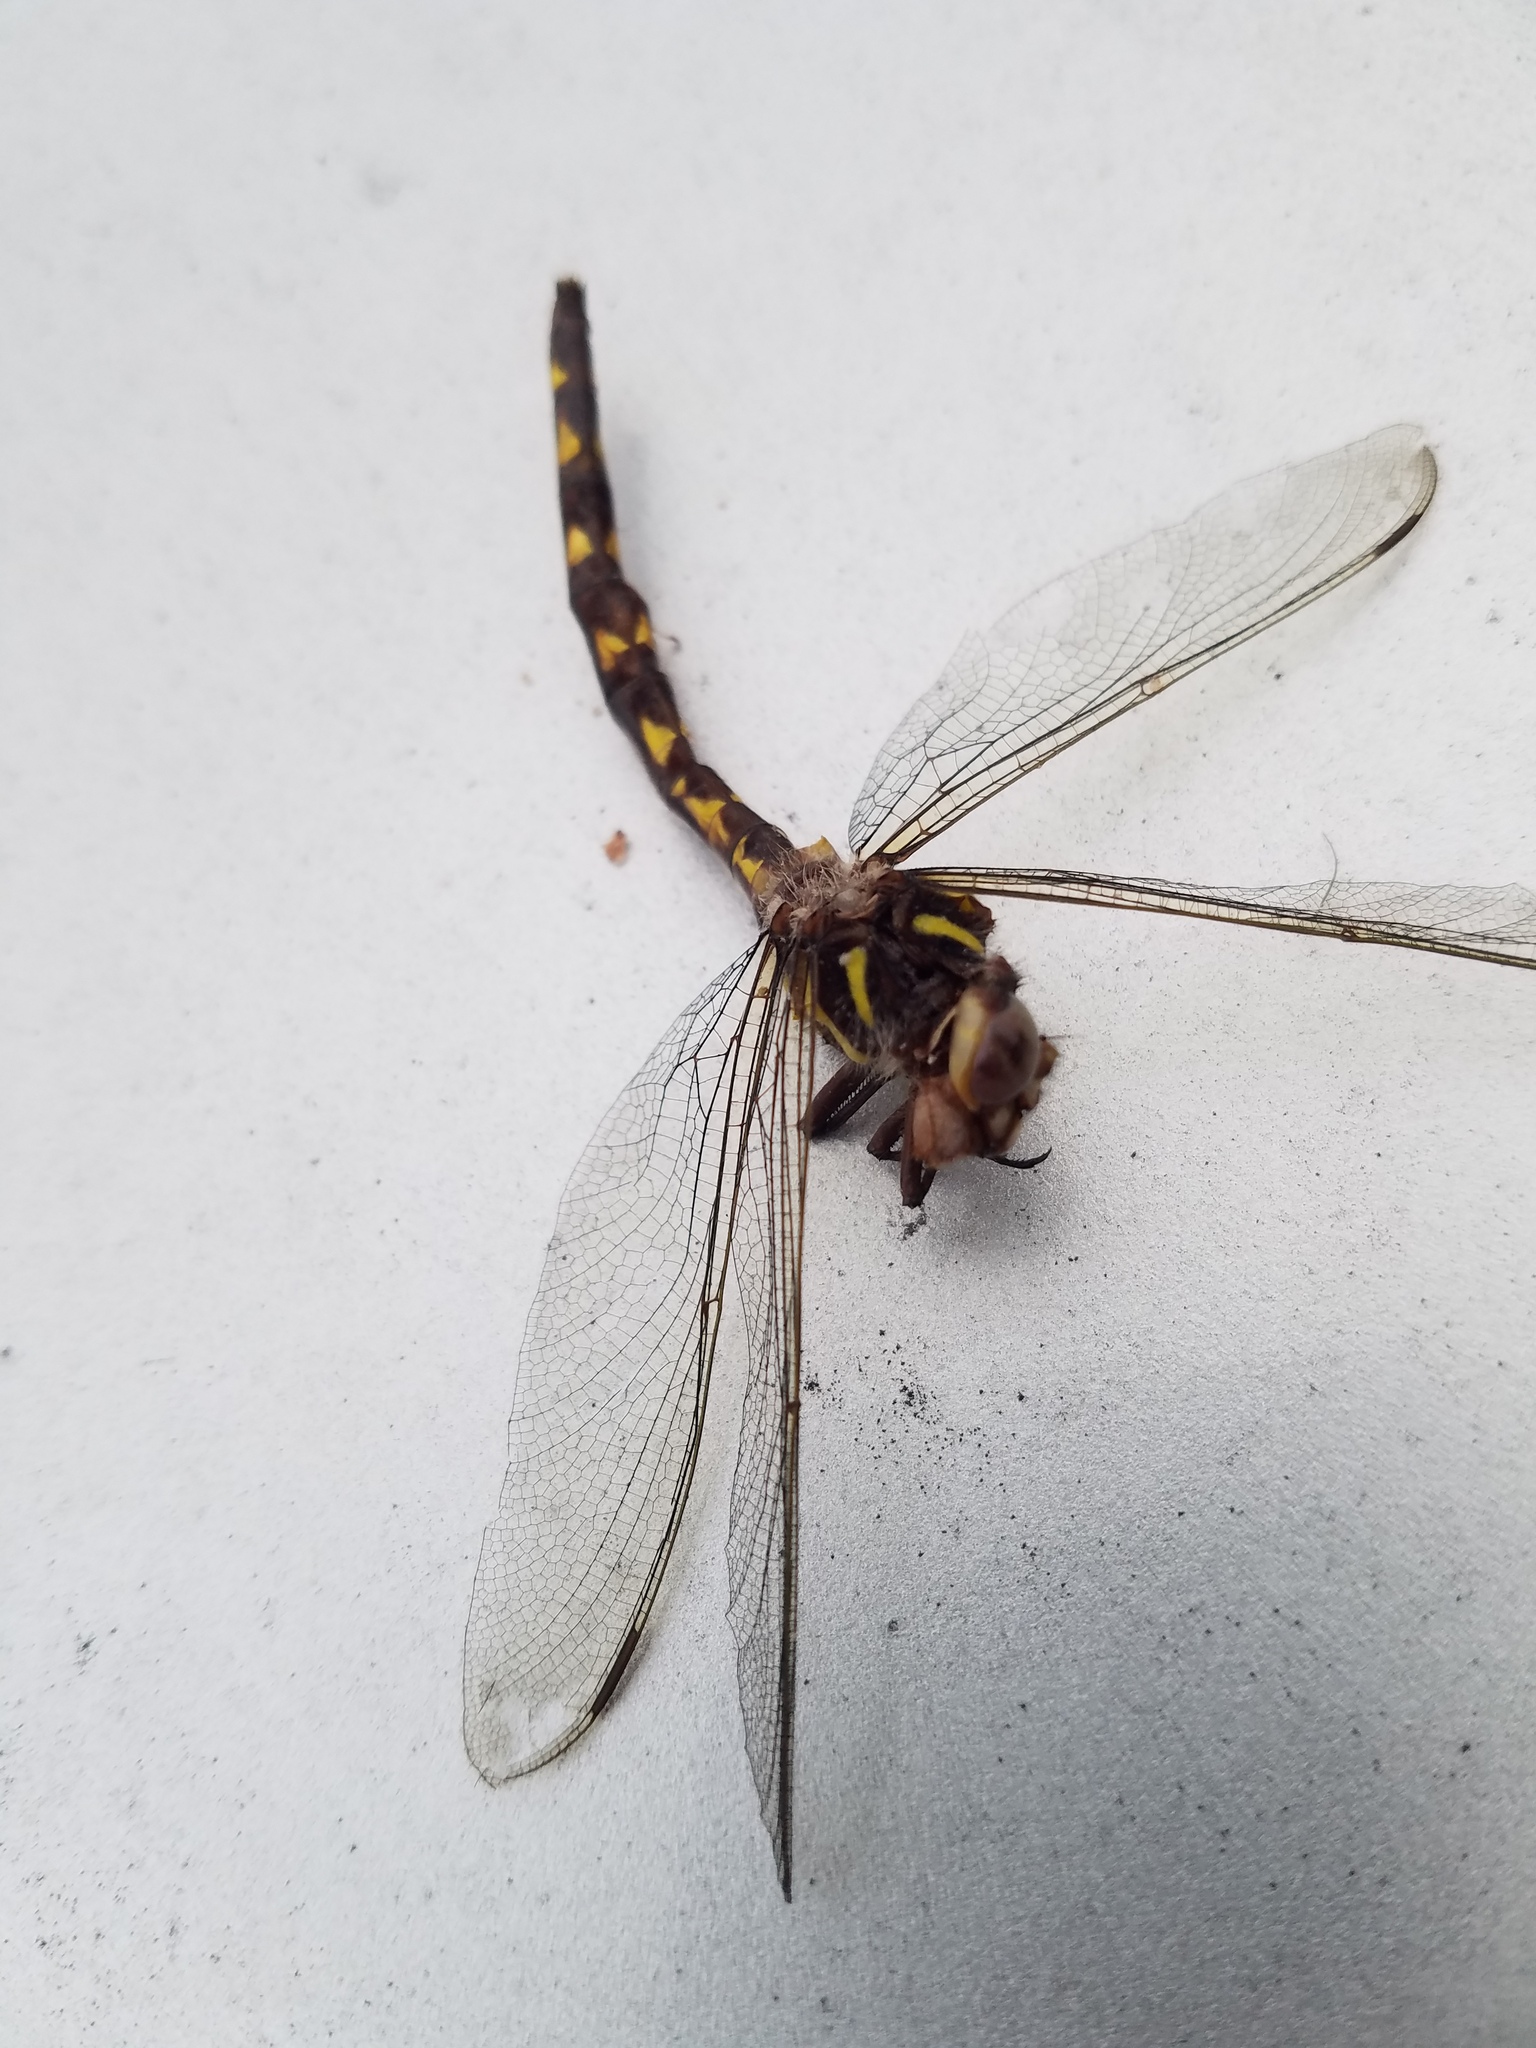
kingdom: Animalia
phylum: Arthropoda
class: Insecta
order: Odonata
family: Cordulegastridae
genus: Cordulegaster
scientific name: Cordulegaster bilineata
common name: Brown spiketail
